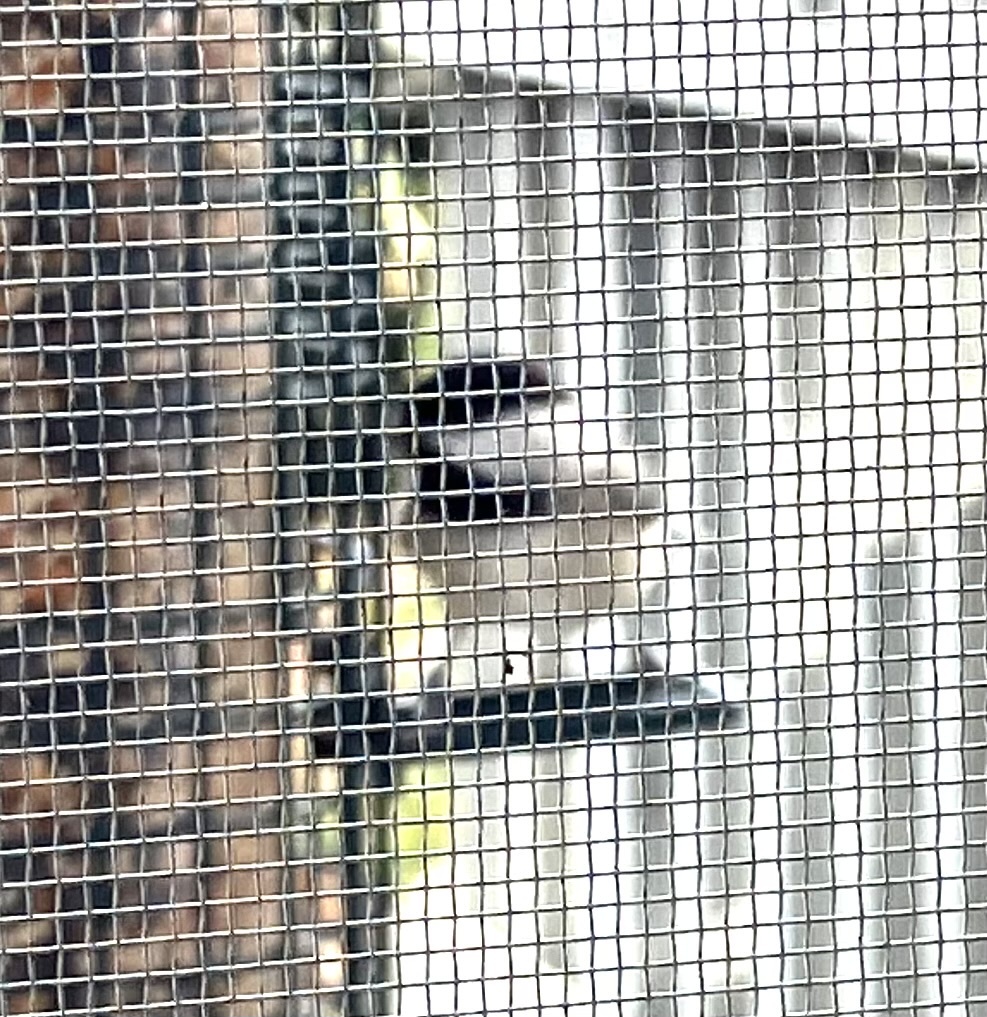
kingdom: Animalia
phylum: Chordata
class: Aves
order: Passeriformes
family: Paridae
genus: Poecile
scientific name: Poecile carolinensis
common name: Carolina chickadee
